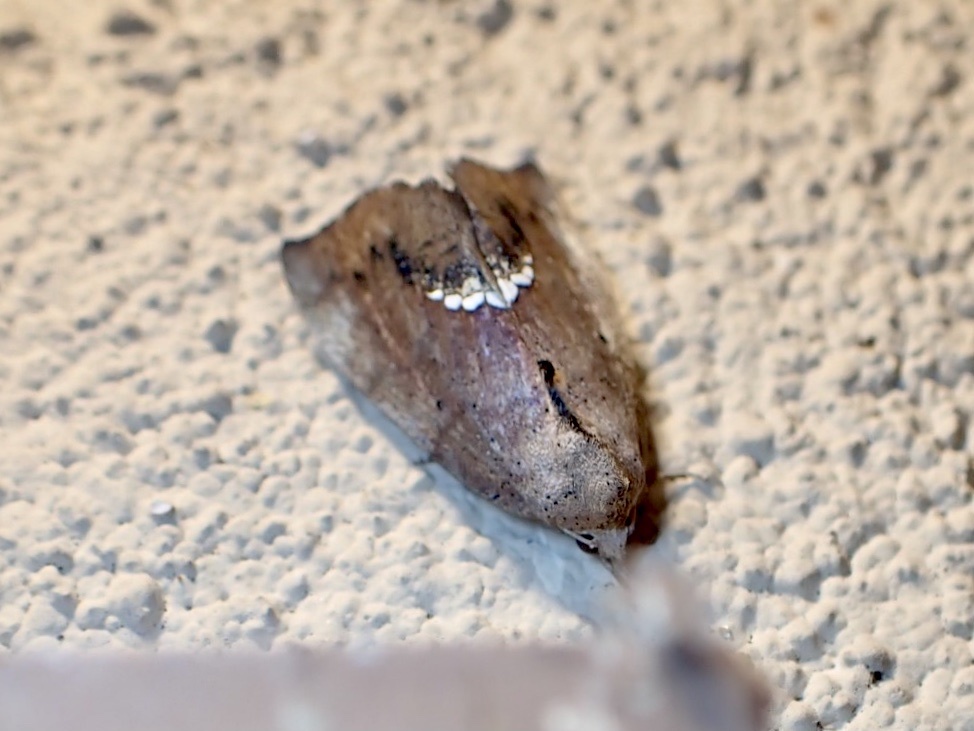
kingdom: Animalia
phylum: Arthropoda
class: Insecta
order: Lepidoptera
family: Erebidae
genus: Hypsoropha
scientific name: Hypsoropha hormos
